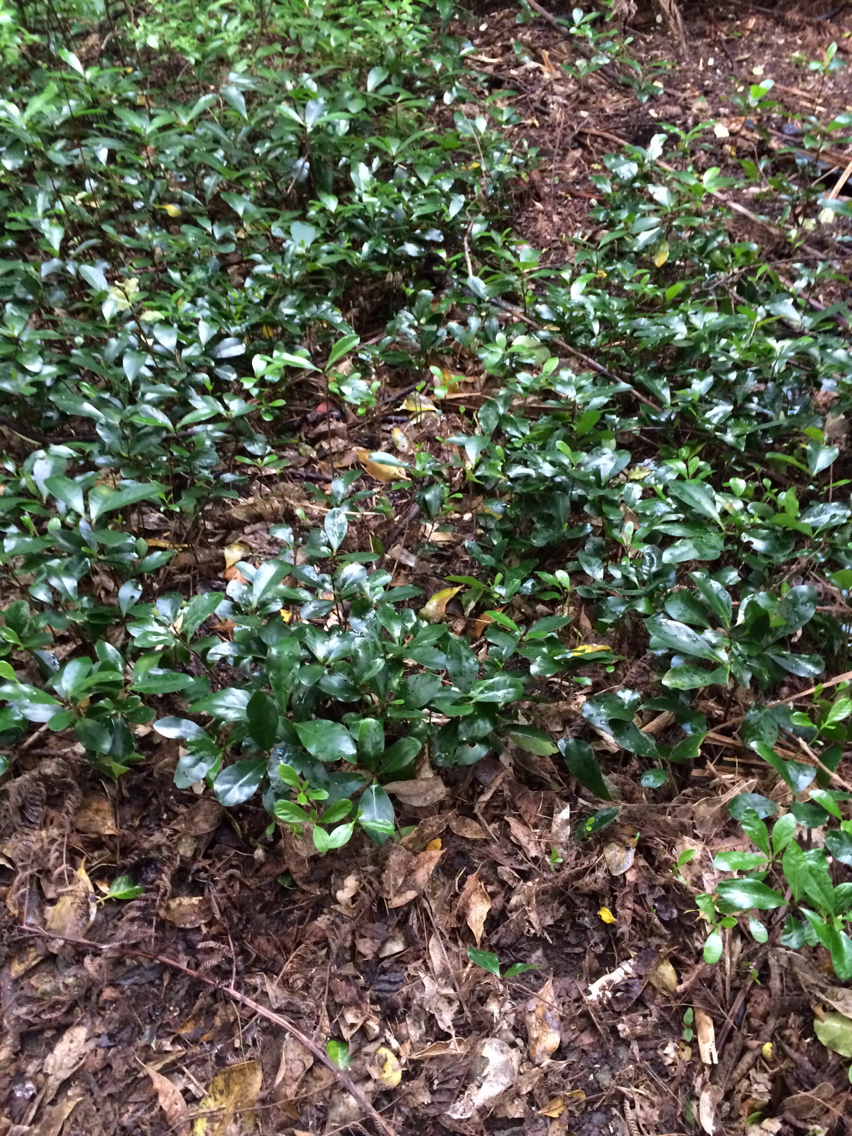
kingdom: Plantae
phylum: Tracheophyta
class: Magnoliopsida
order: Cucurbitales
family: Corynocarpaceae
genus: Corynocarpus
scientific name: Corynocarpus laevigatus
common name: New zealand laurel
